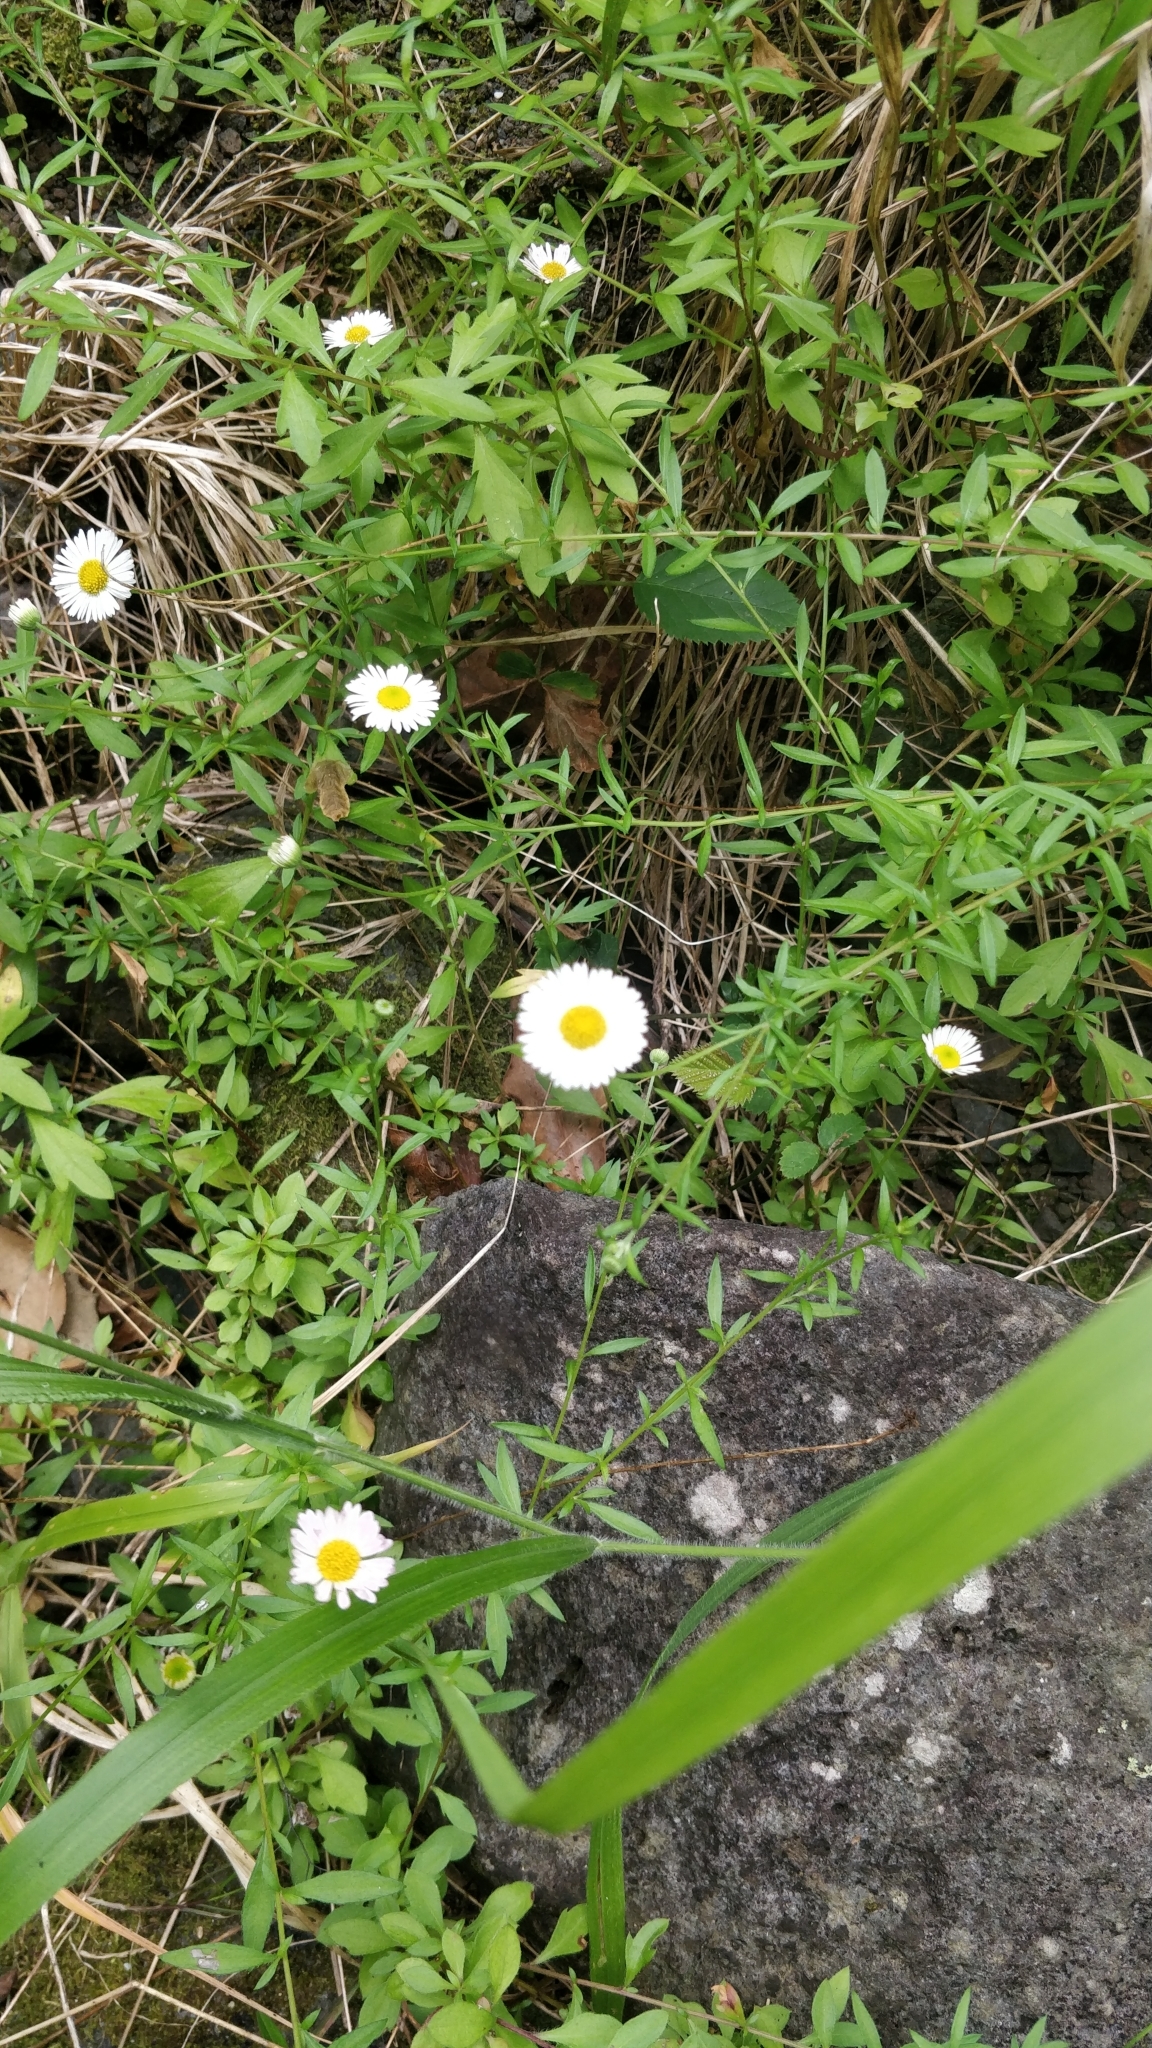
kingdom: Plantae
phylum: Tracheophyta
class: Magnoliopsida
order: Asterales
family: Asteraceae
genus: Erigeron
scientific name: Erigeron karvinskianus
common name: Mexican fleabane
